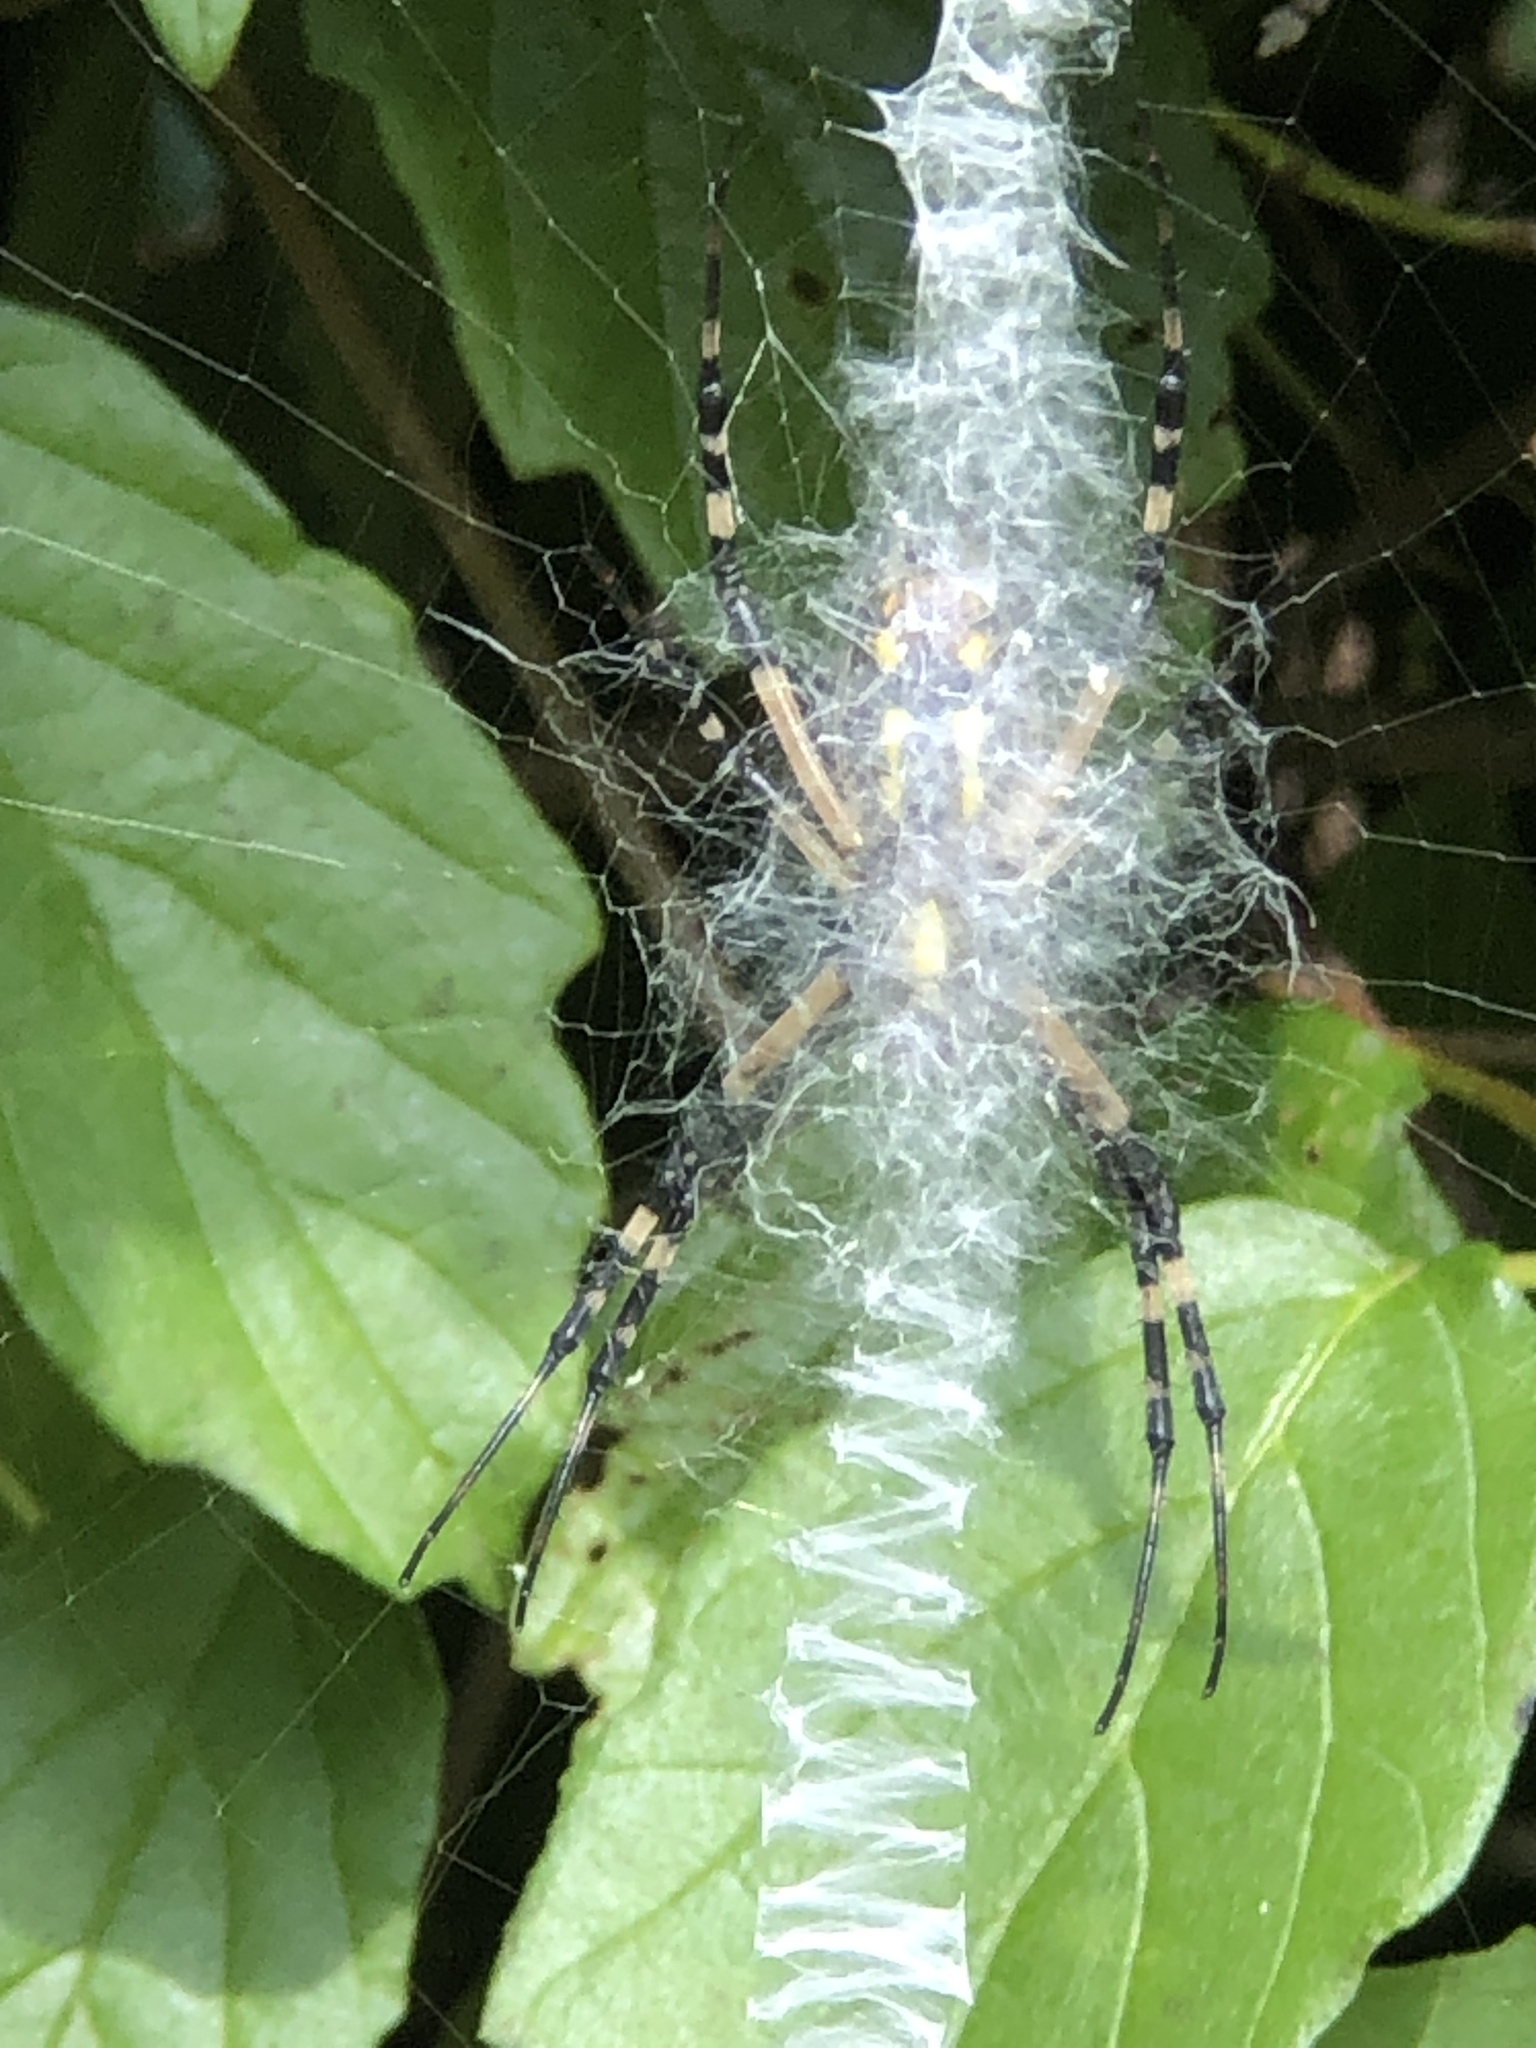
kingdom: Animalia
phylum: Arthropoda
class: Arachnida
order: Araneae
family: Araneidae
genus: Argiope
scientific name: Argiope aurantia
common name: Orb weavers
